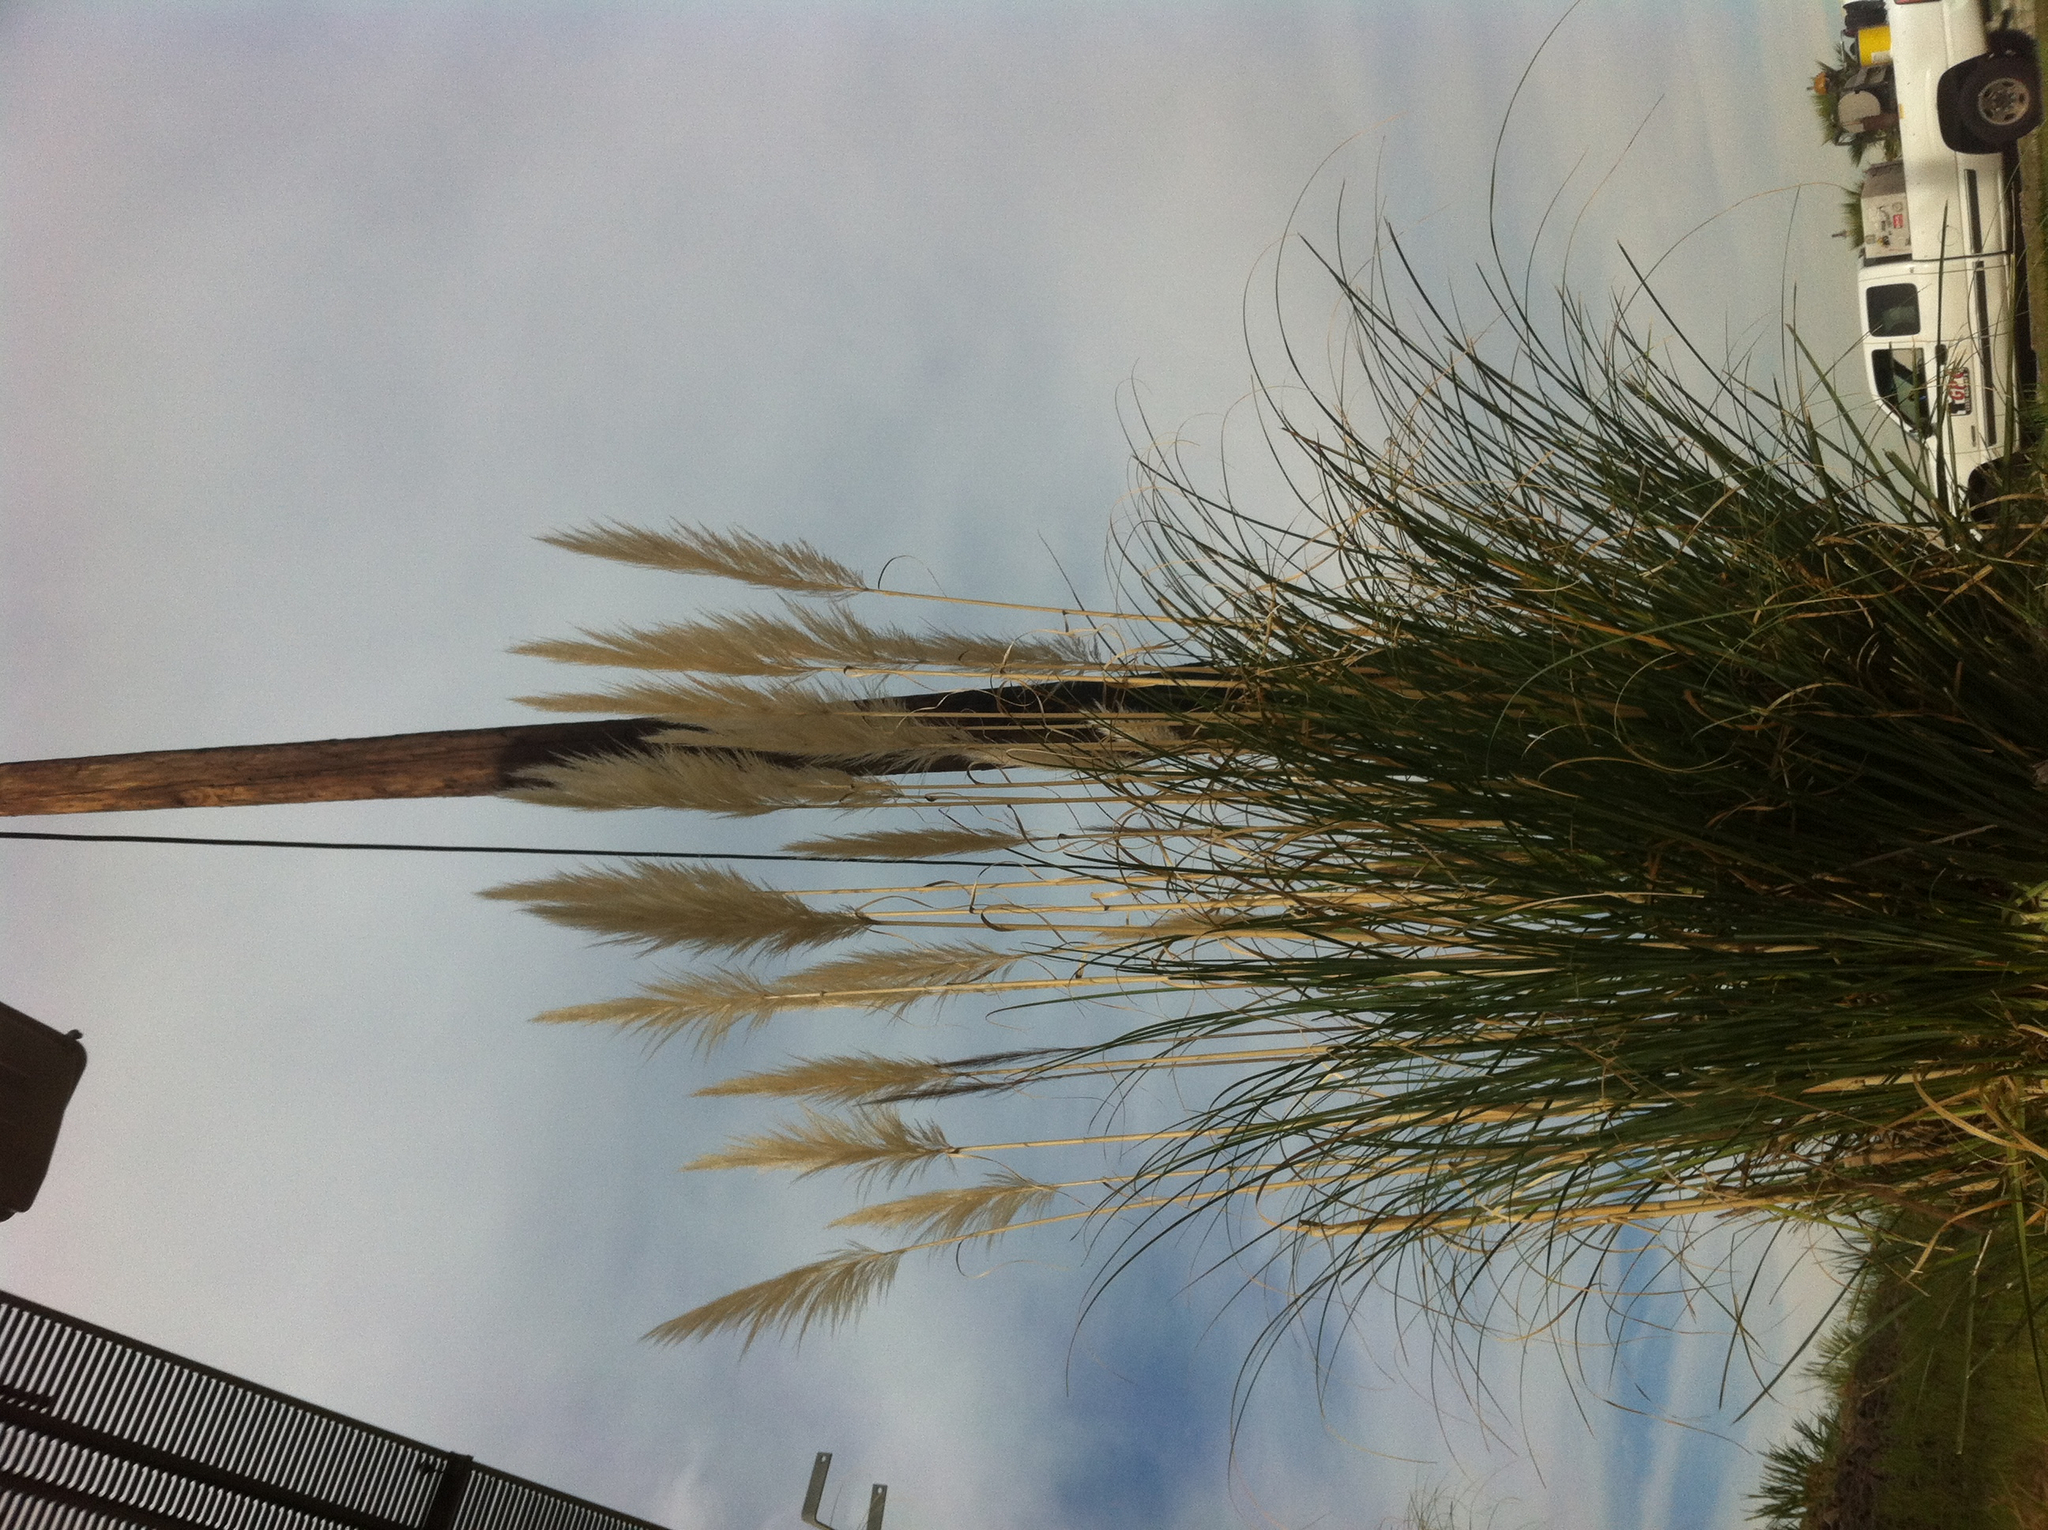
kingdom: Plantae
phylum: Tracheophyta
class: Liliopsida
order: Poales
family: Poaceae
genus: Cortaderia
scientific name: Cortaderia selloana
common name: Uruguayan pampas grass
